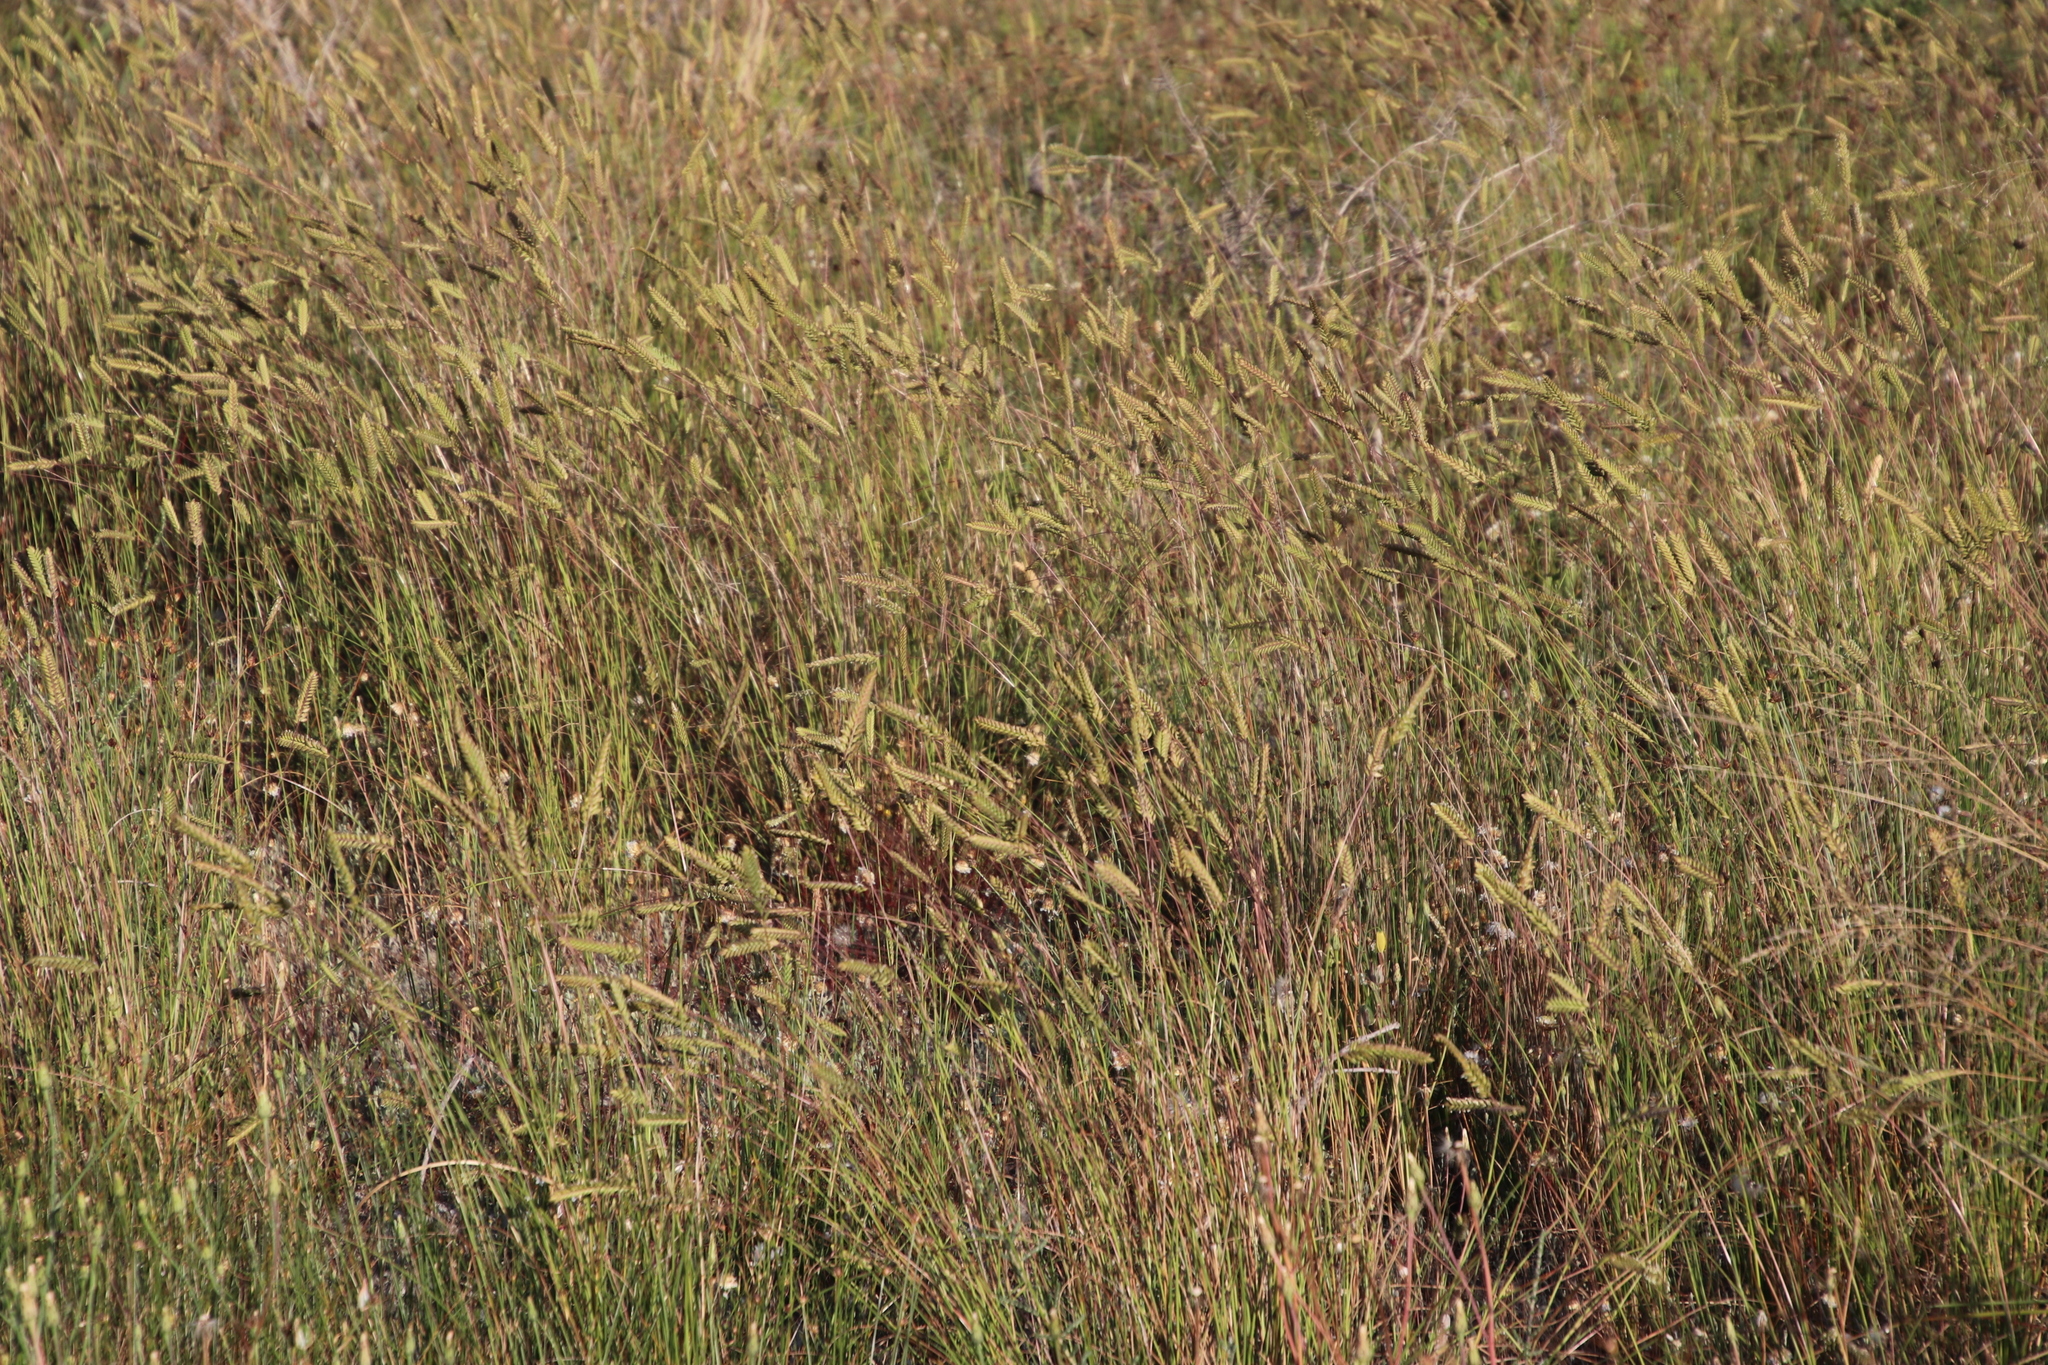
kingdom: Plantae
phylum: Tracheophyta
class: Liliopsida
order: Poales
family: Poaceae
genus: Tribolium
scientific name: Tribolium uniolae
